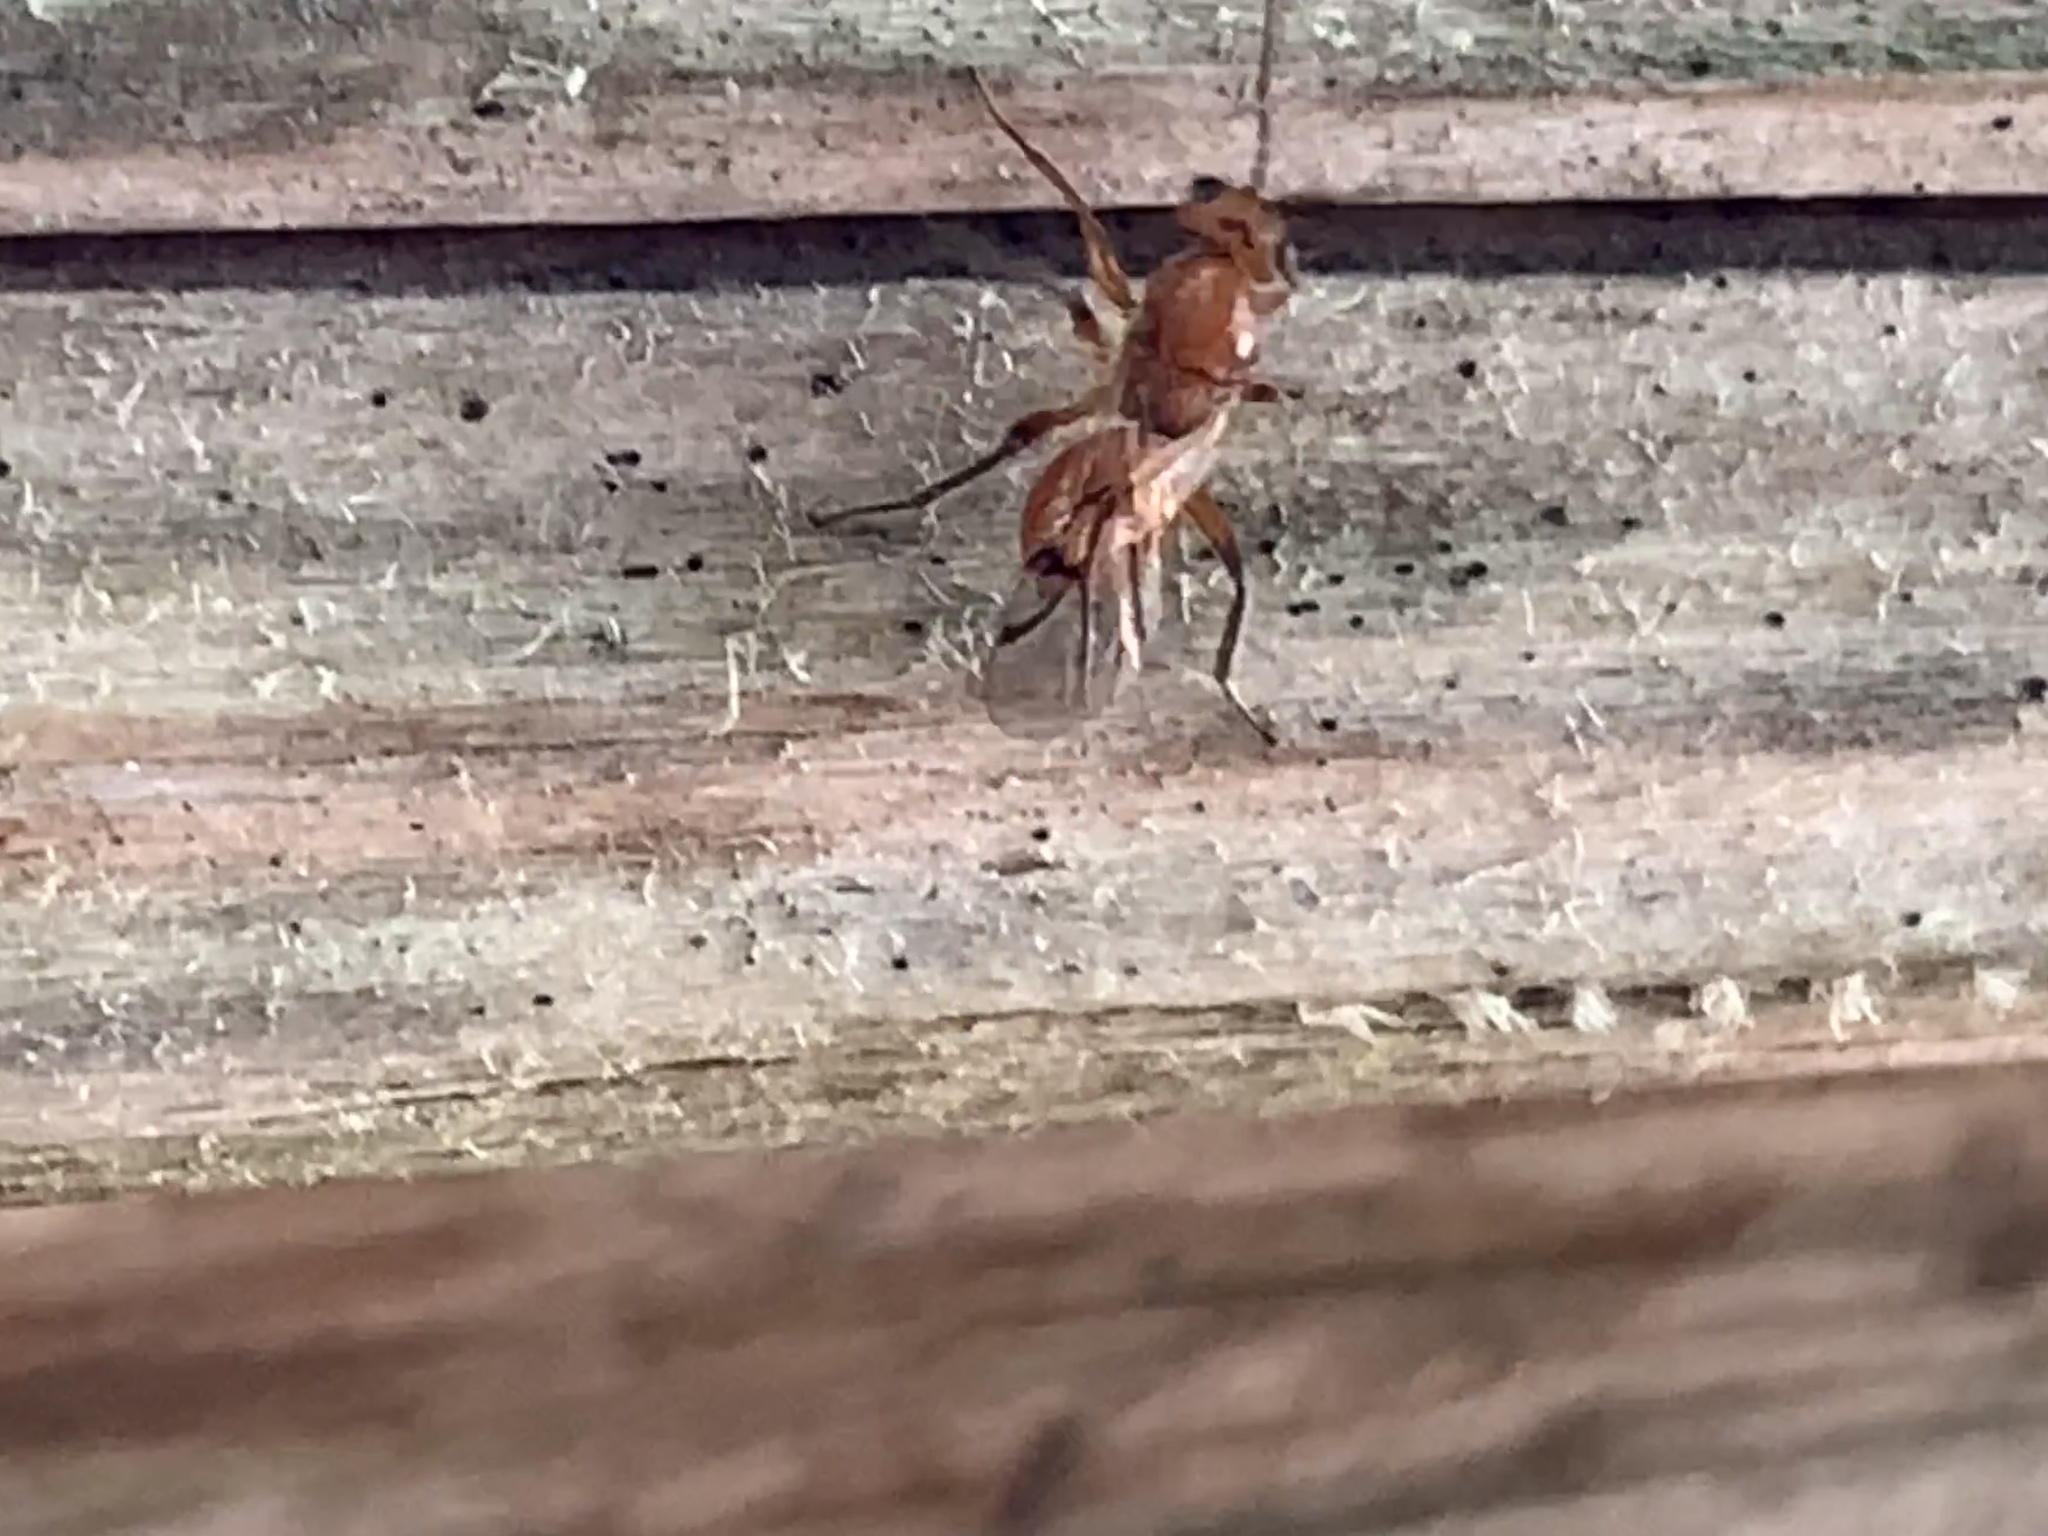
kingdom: Animalia
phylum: Arthropoda
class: Insecta
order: Hymenoptera
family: Cynipidae
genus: Belonocnema
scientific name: Belonocnema kinseyi
